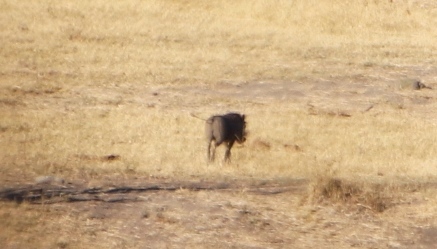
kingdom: Animalia
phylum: Chordata
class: Mammalia
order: Artiodactyla
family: Suidae
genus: Phacochoerus
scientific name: Phacochoerus africanus
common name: Common warthog
